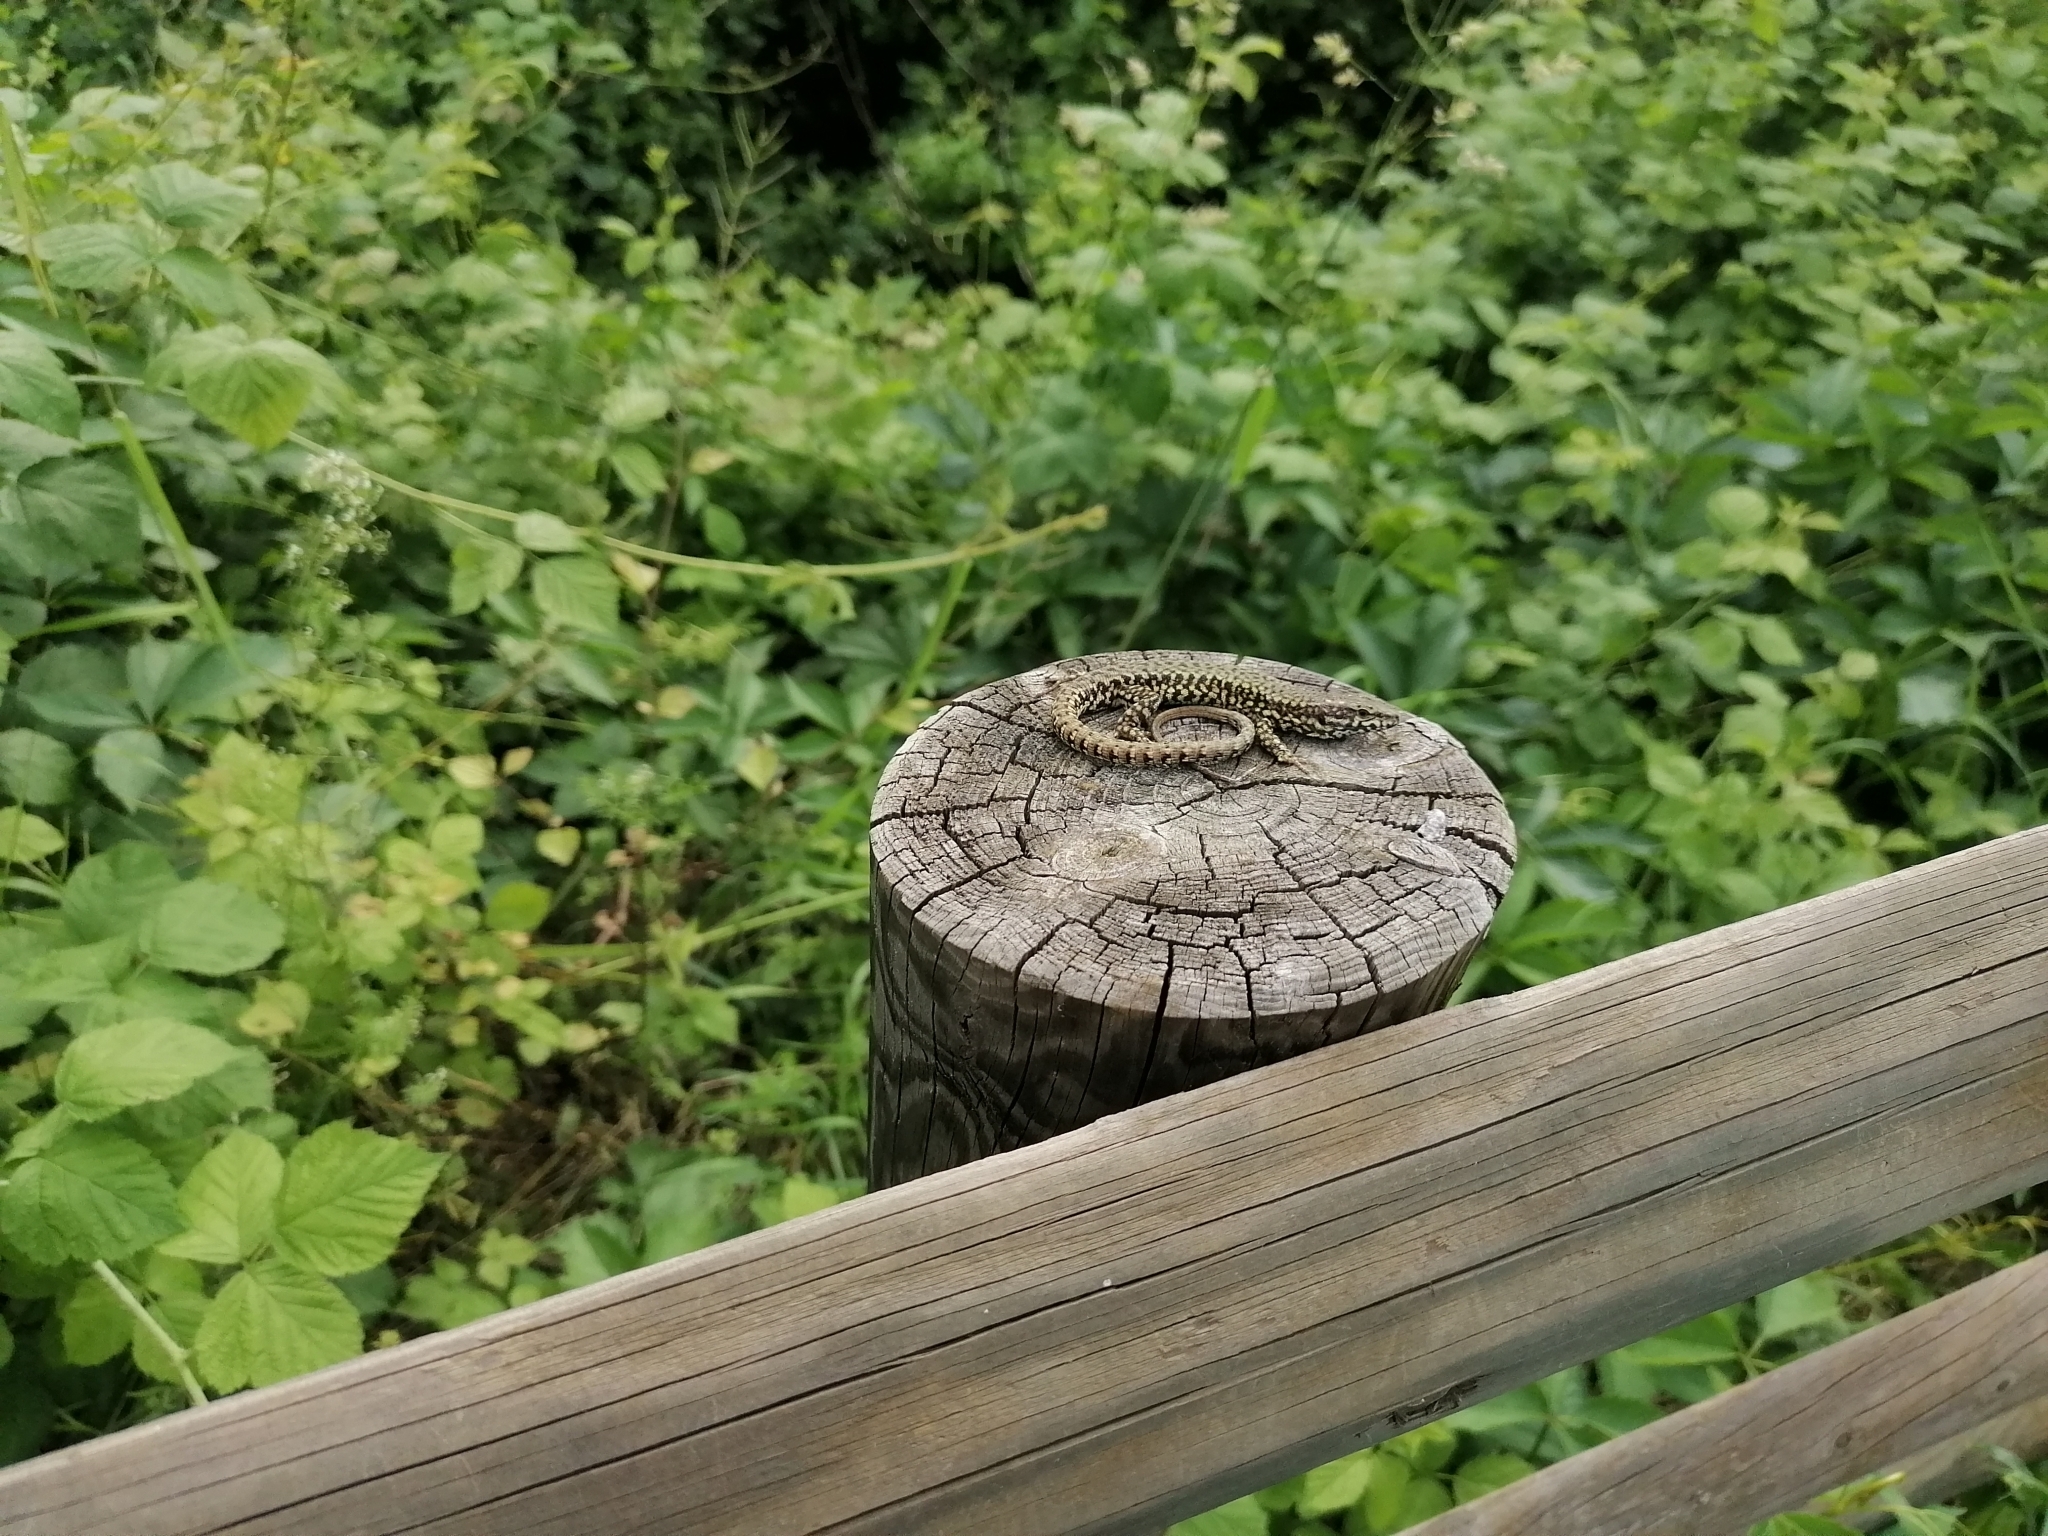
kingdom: Animalia
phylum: Chordata
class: Squamata
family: Lacertidae
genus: Podarcis
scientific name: Podarcis muralis
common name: Common wall lizard
